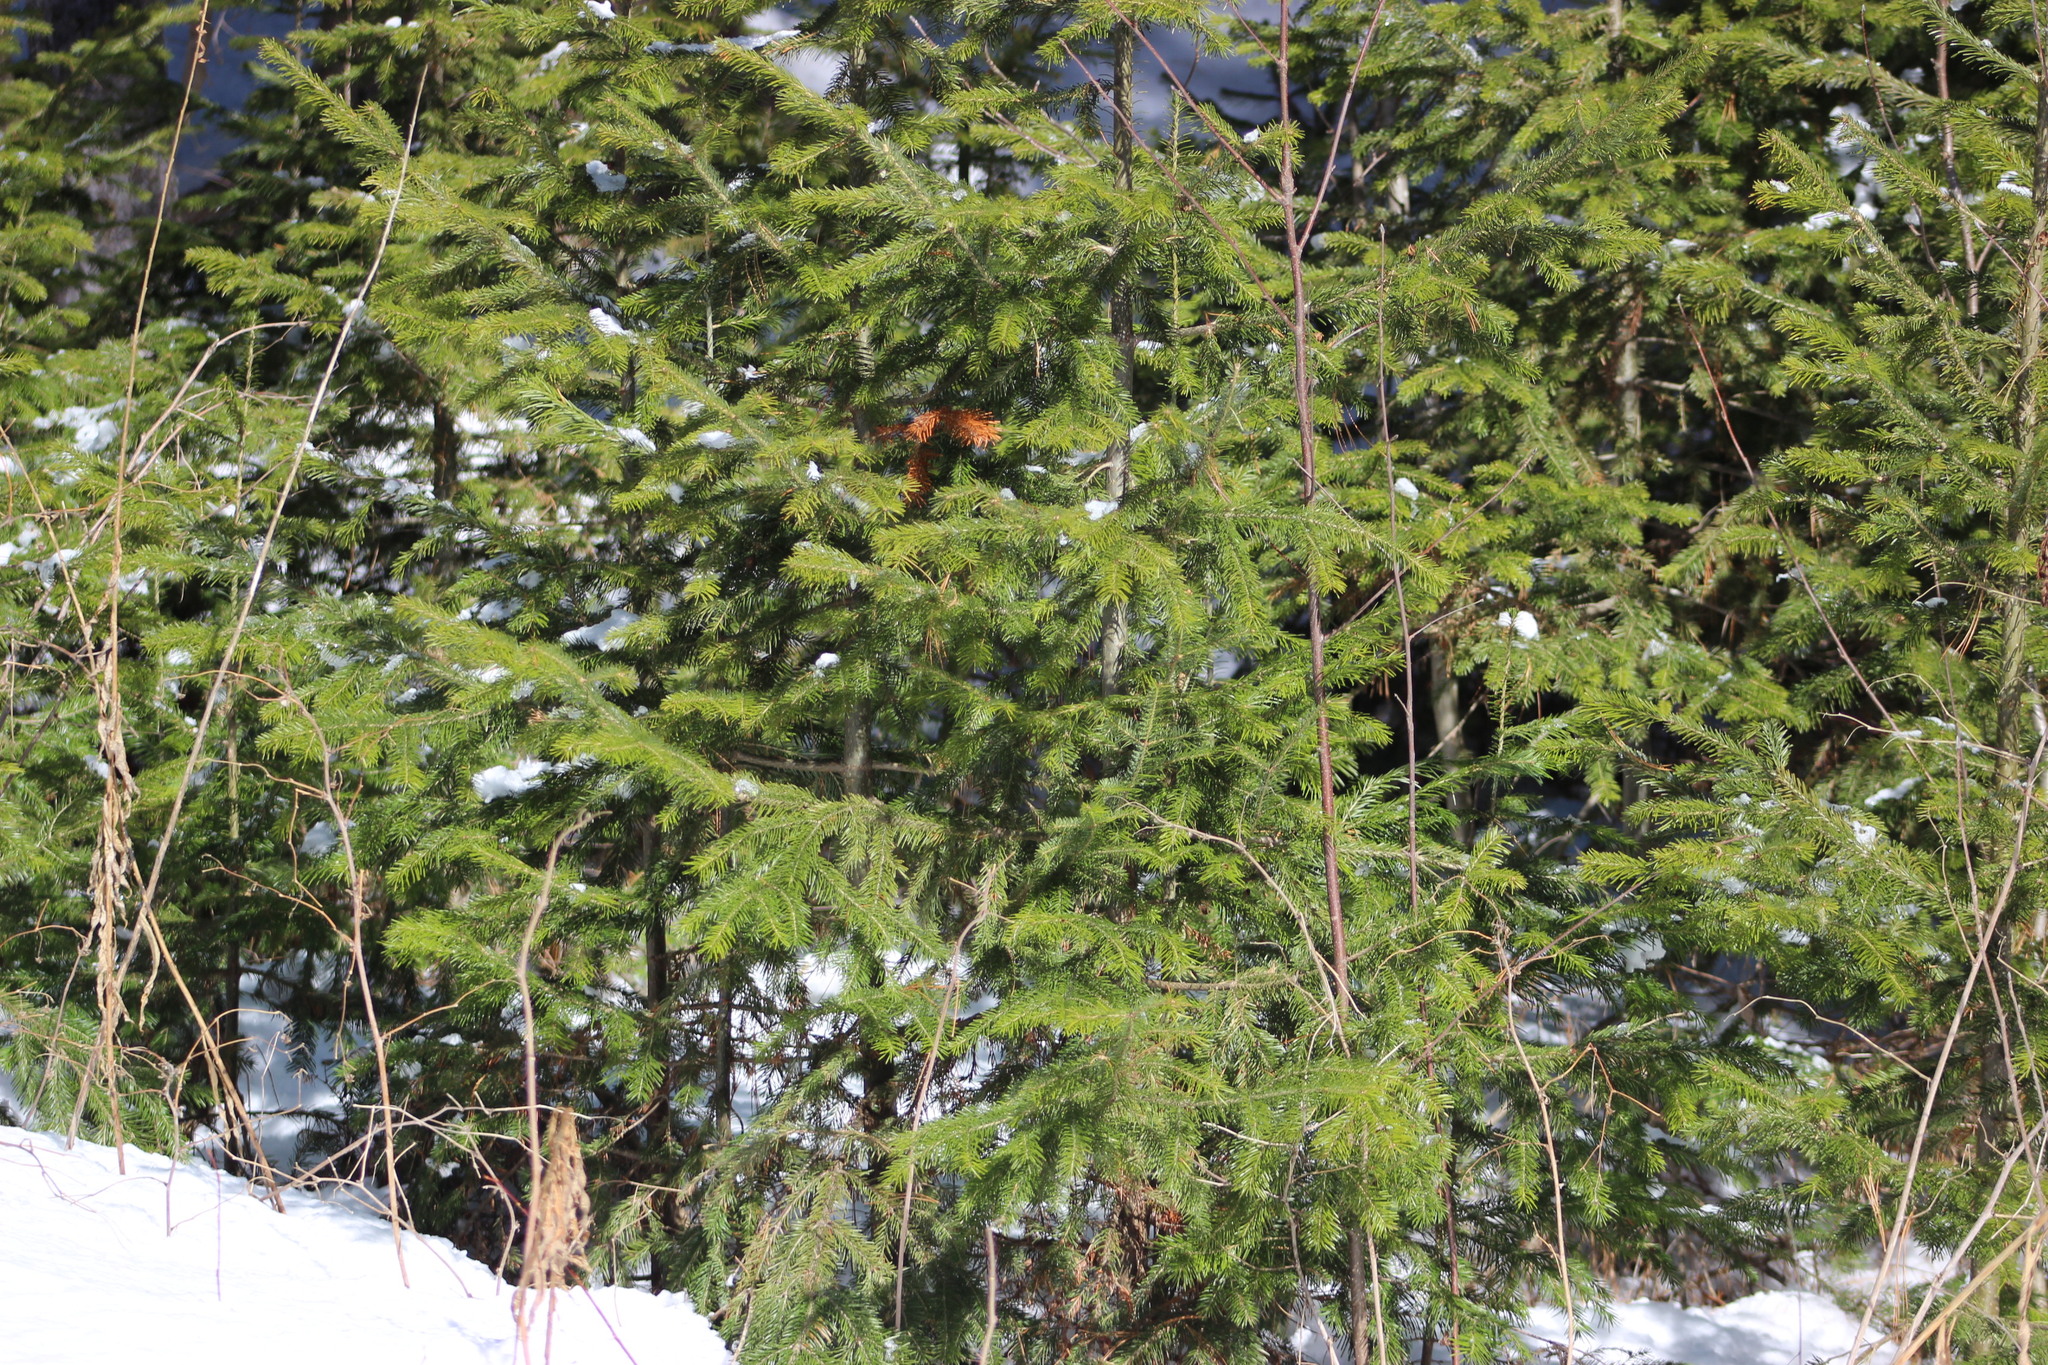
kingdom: Plantae
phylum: Tracheophyta
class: Pinopsida
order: Pinales
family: Pinaceae
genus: Abies
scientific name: Abies sibirica
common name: Siberian fir
